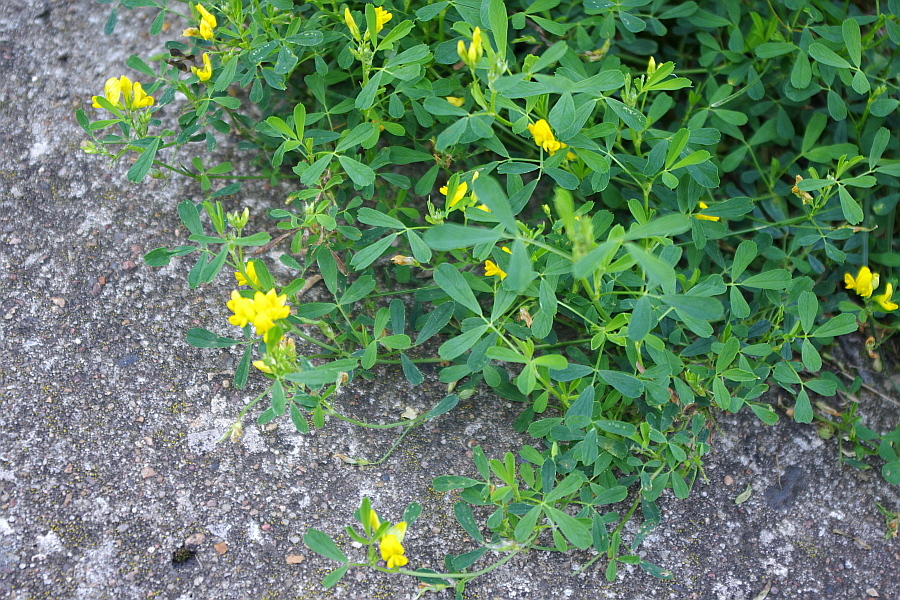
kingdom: Plantae
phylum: Tracheophyta
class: Magnoliopsida
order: Fabales
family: Fabaceae
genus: Medicago
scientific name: Medicago falcata
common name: Sickle medick
